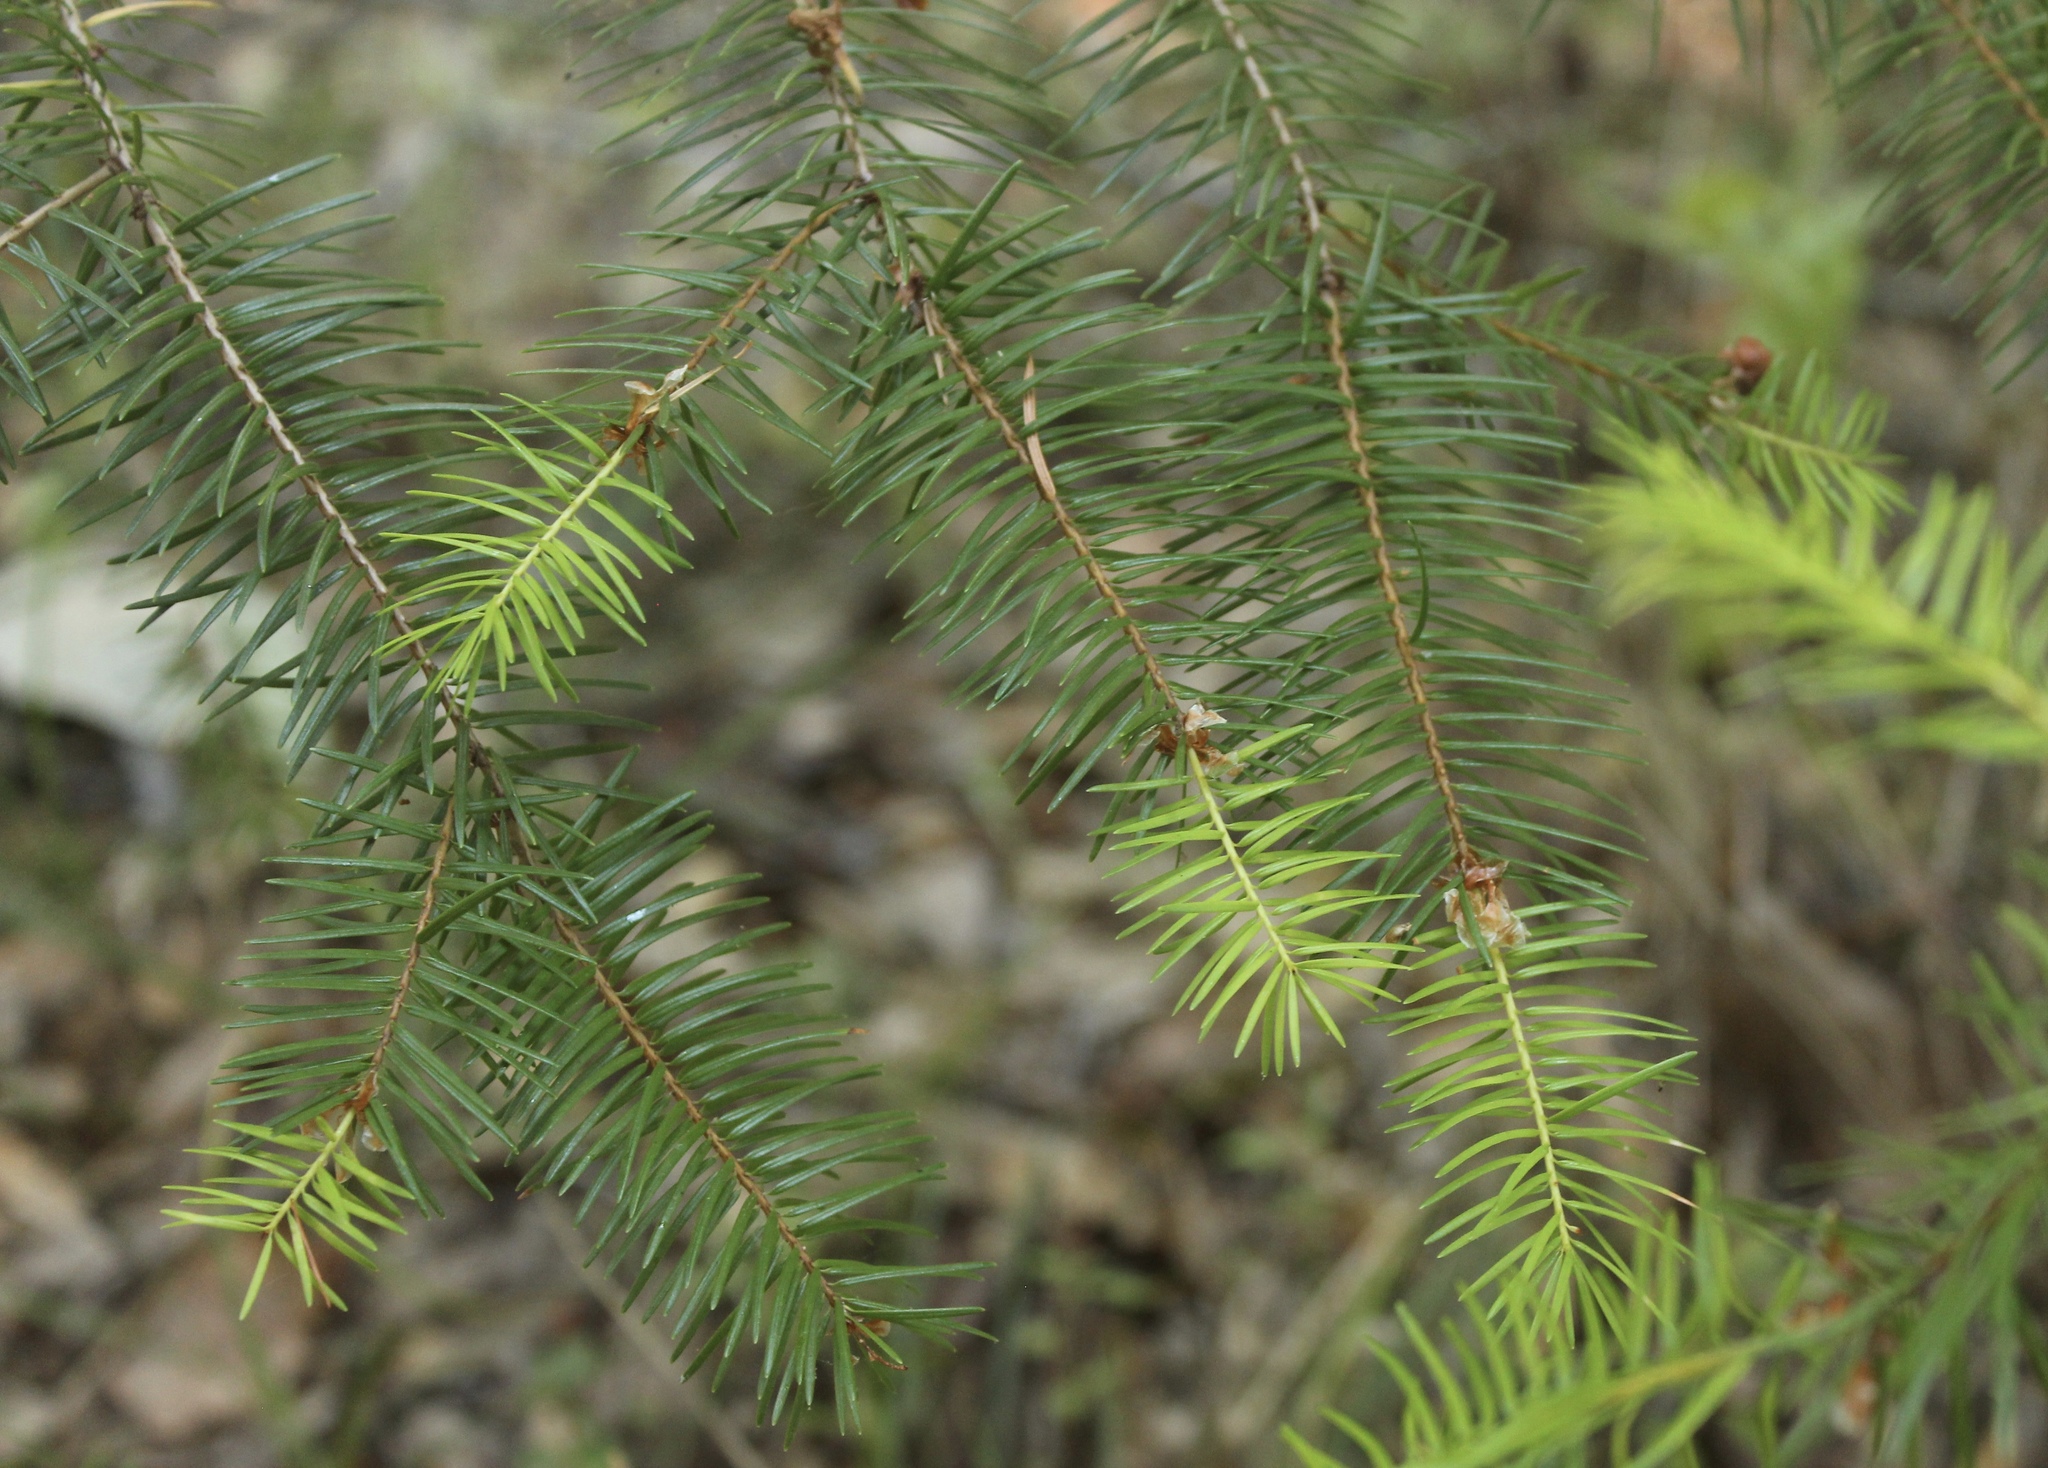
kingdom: Plantae
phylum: Tracheophyta
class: Pinopsida
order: Pinales
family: Pinaceae
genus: Pseudotsuga
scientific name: Pseudotsuga menziesii
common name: Douglas fir
